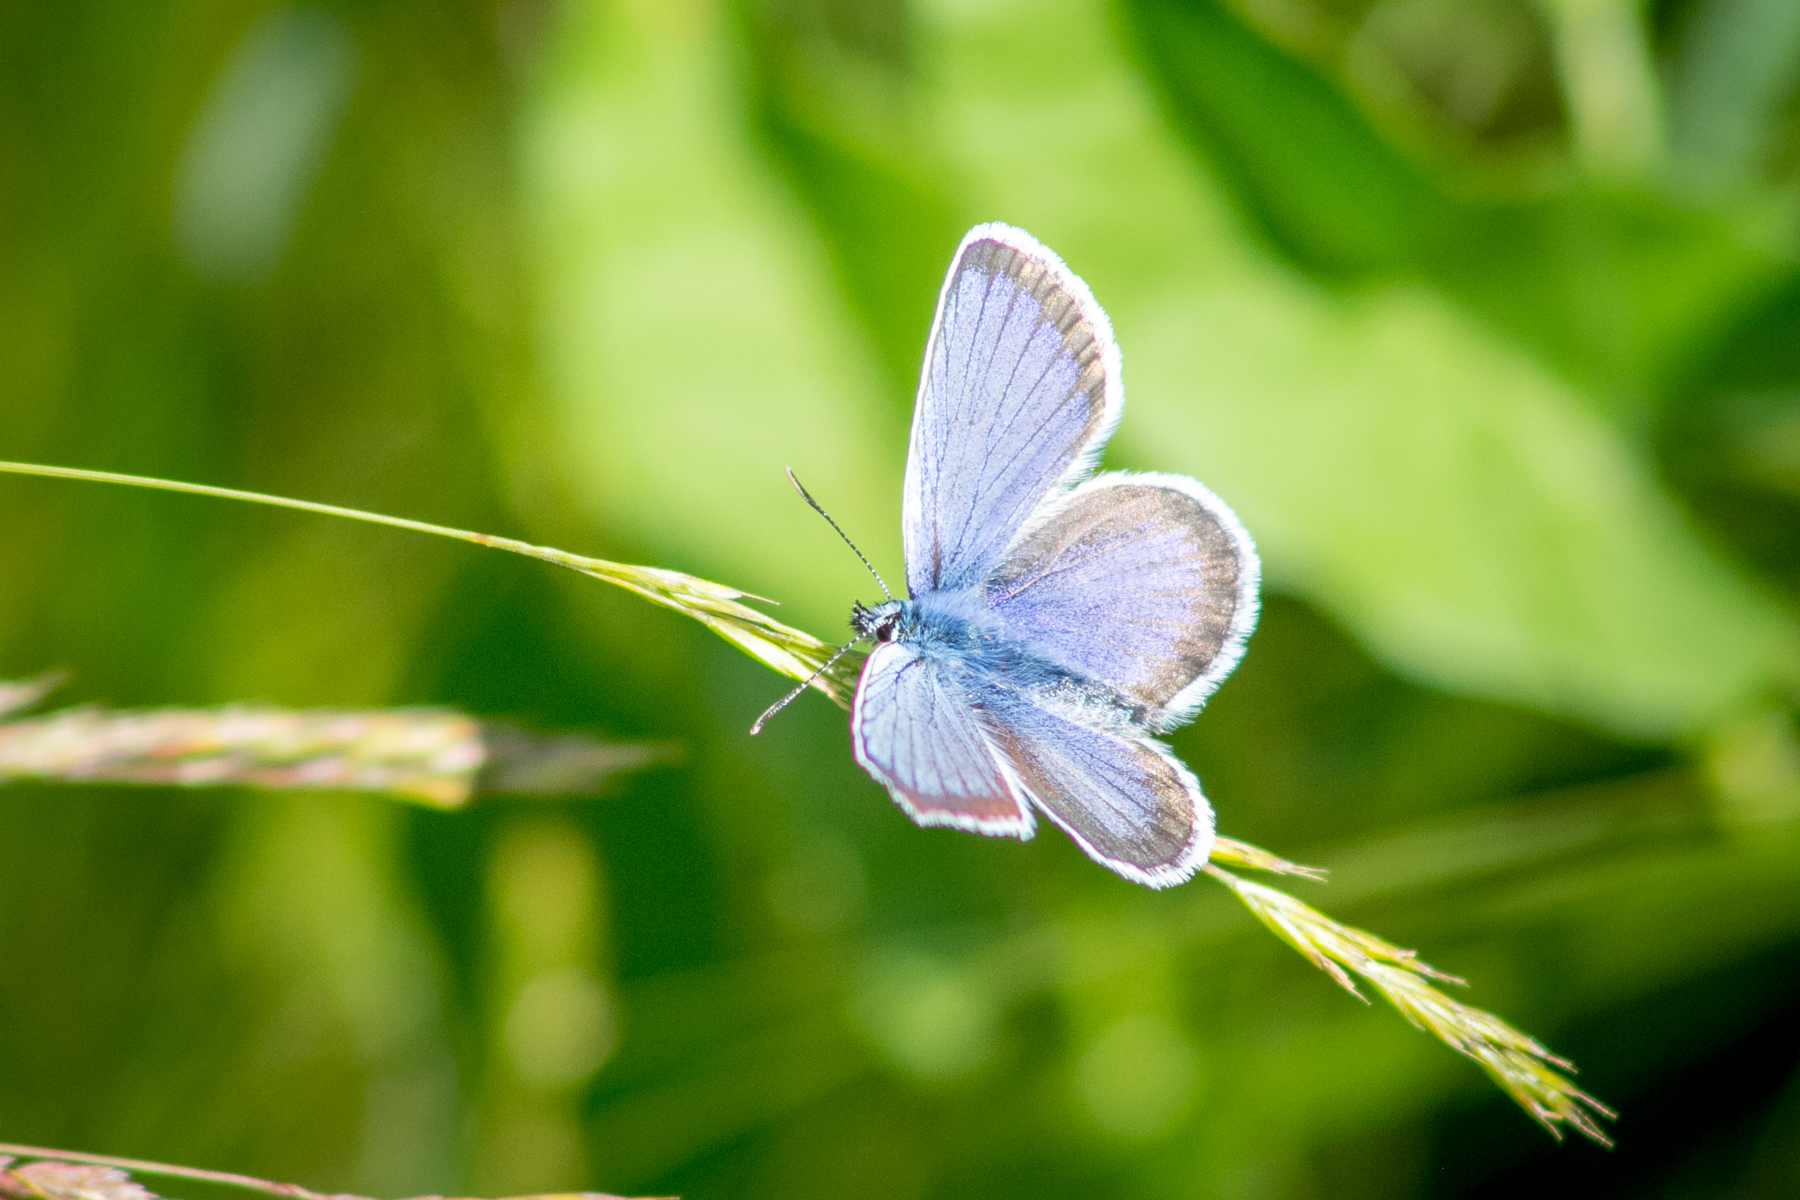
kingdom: Animalia
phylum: Arthropoda
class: Insecta
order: Lepidoptera
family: Lycaenidae
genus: Plebejus
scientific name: Plebejus argus
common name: Silver-studded blue
